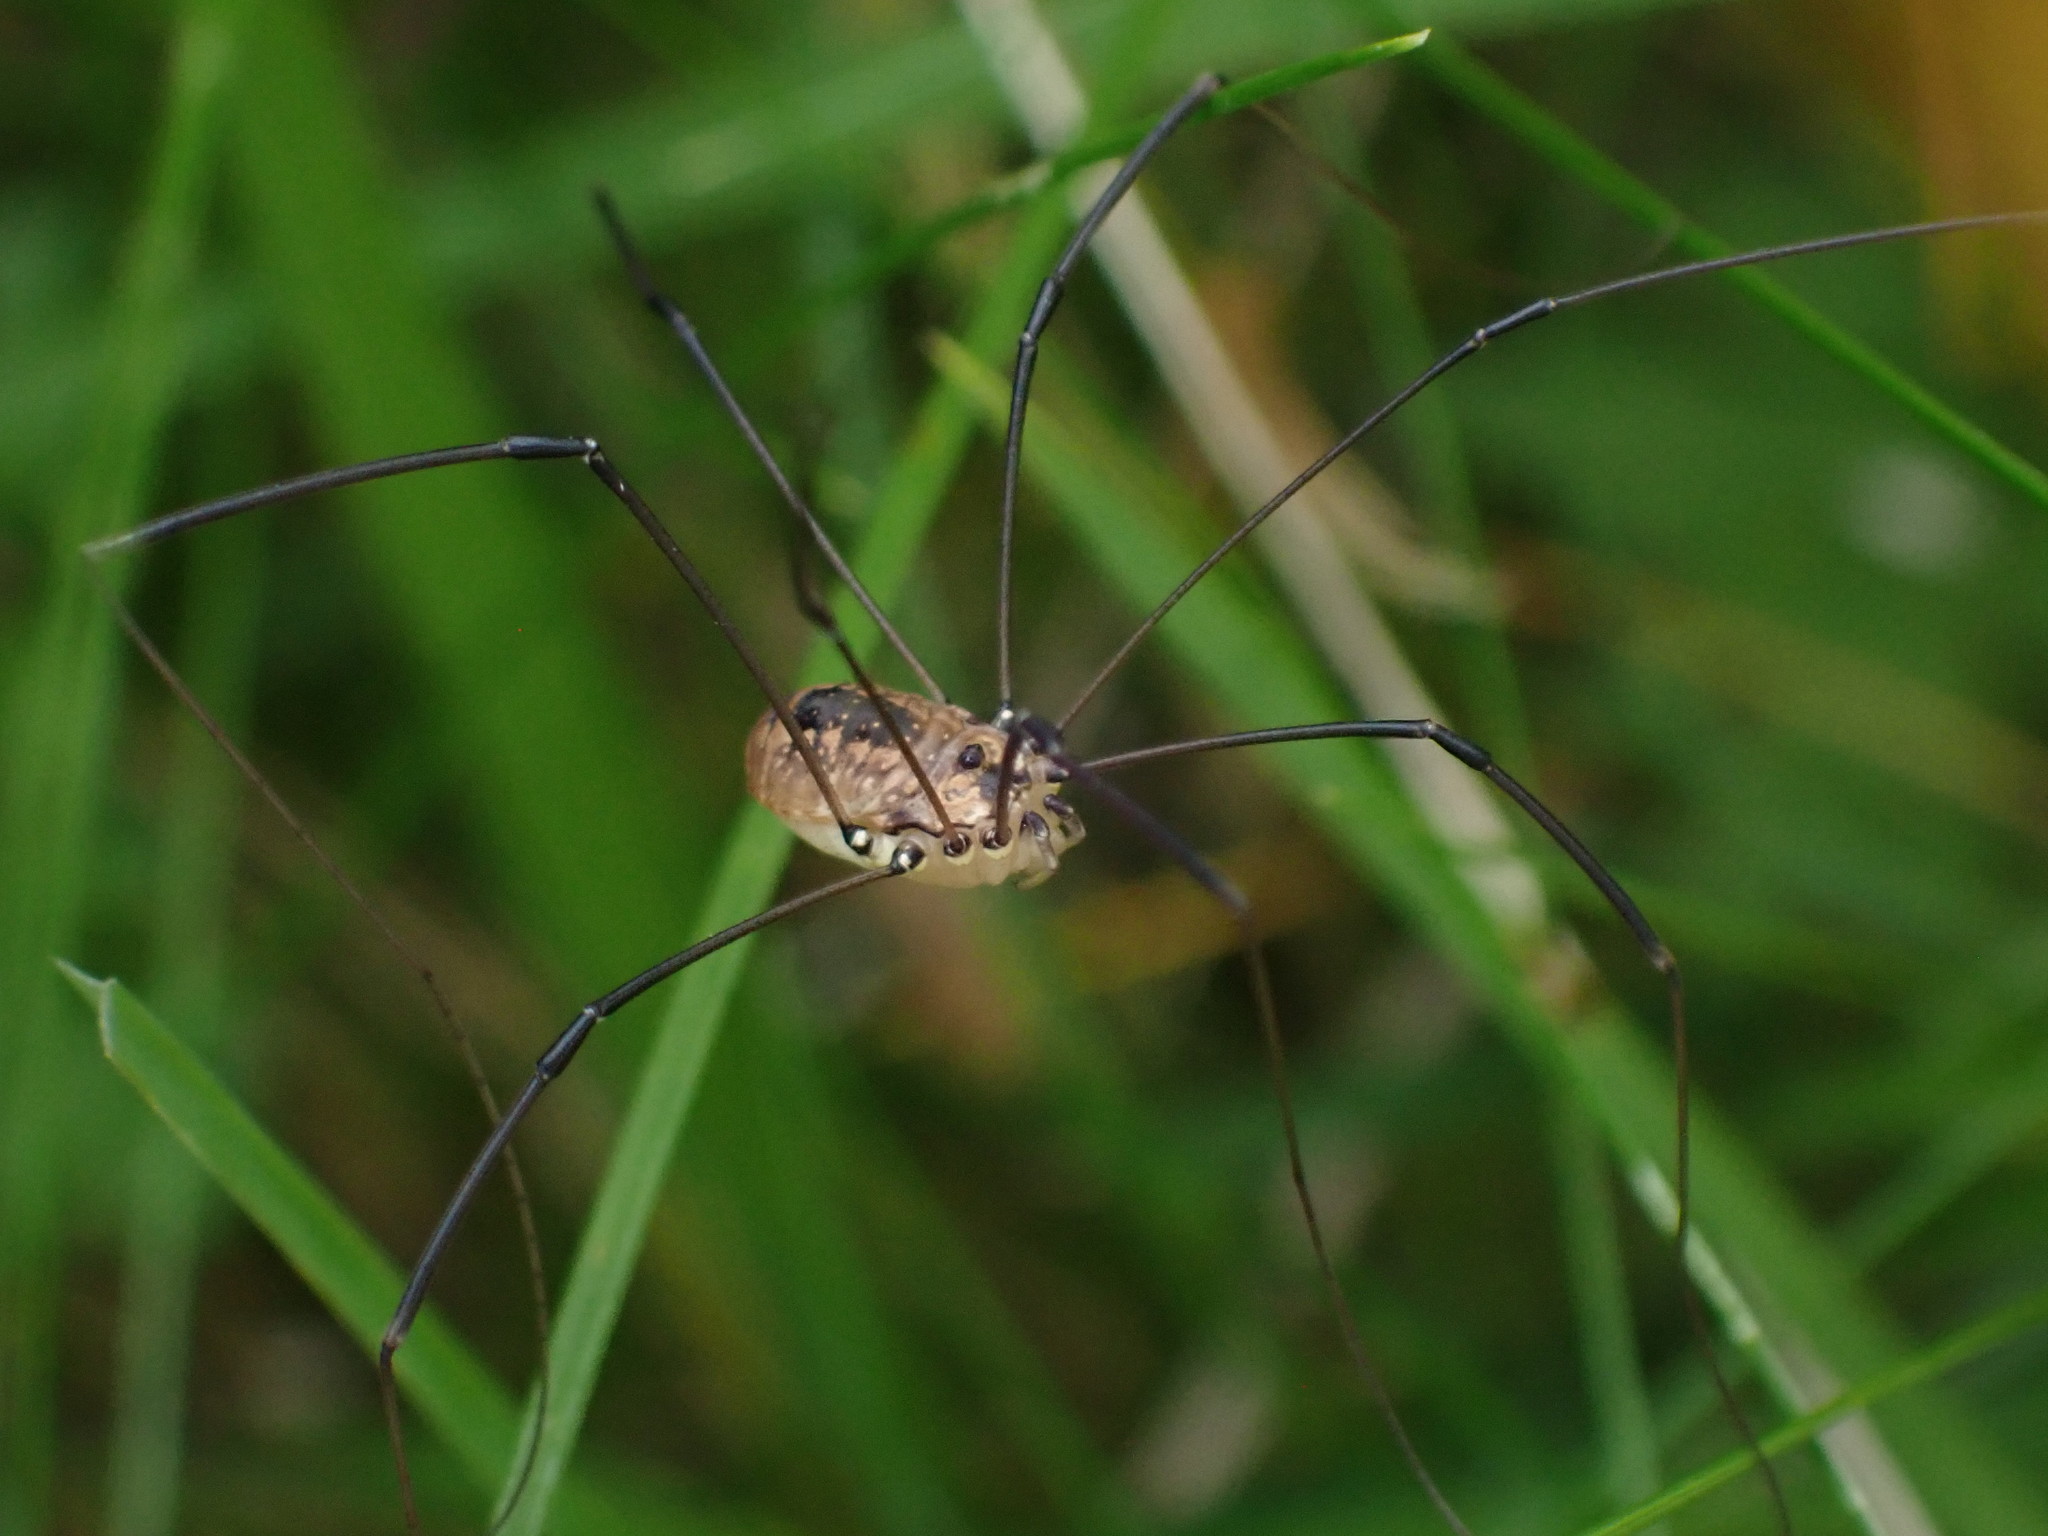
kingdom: Animalia
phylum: Arthropoda
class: Arachnida
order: Opiliones
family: Sclerosomatidae
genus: Leiobunum
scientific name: Leiobunum rotundum
